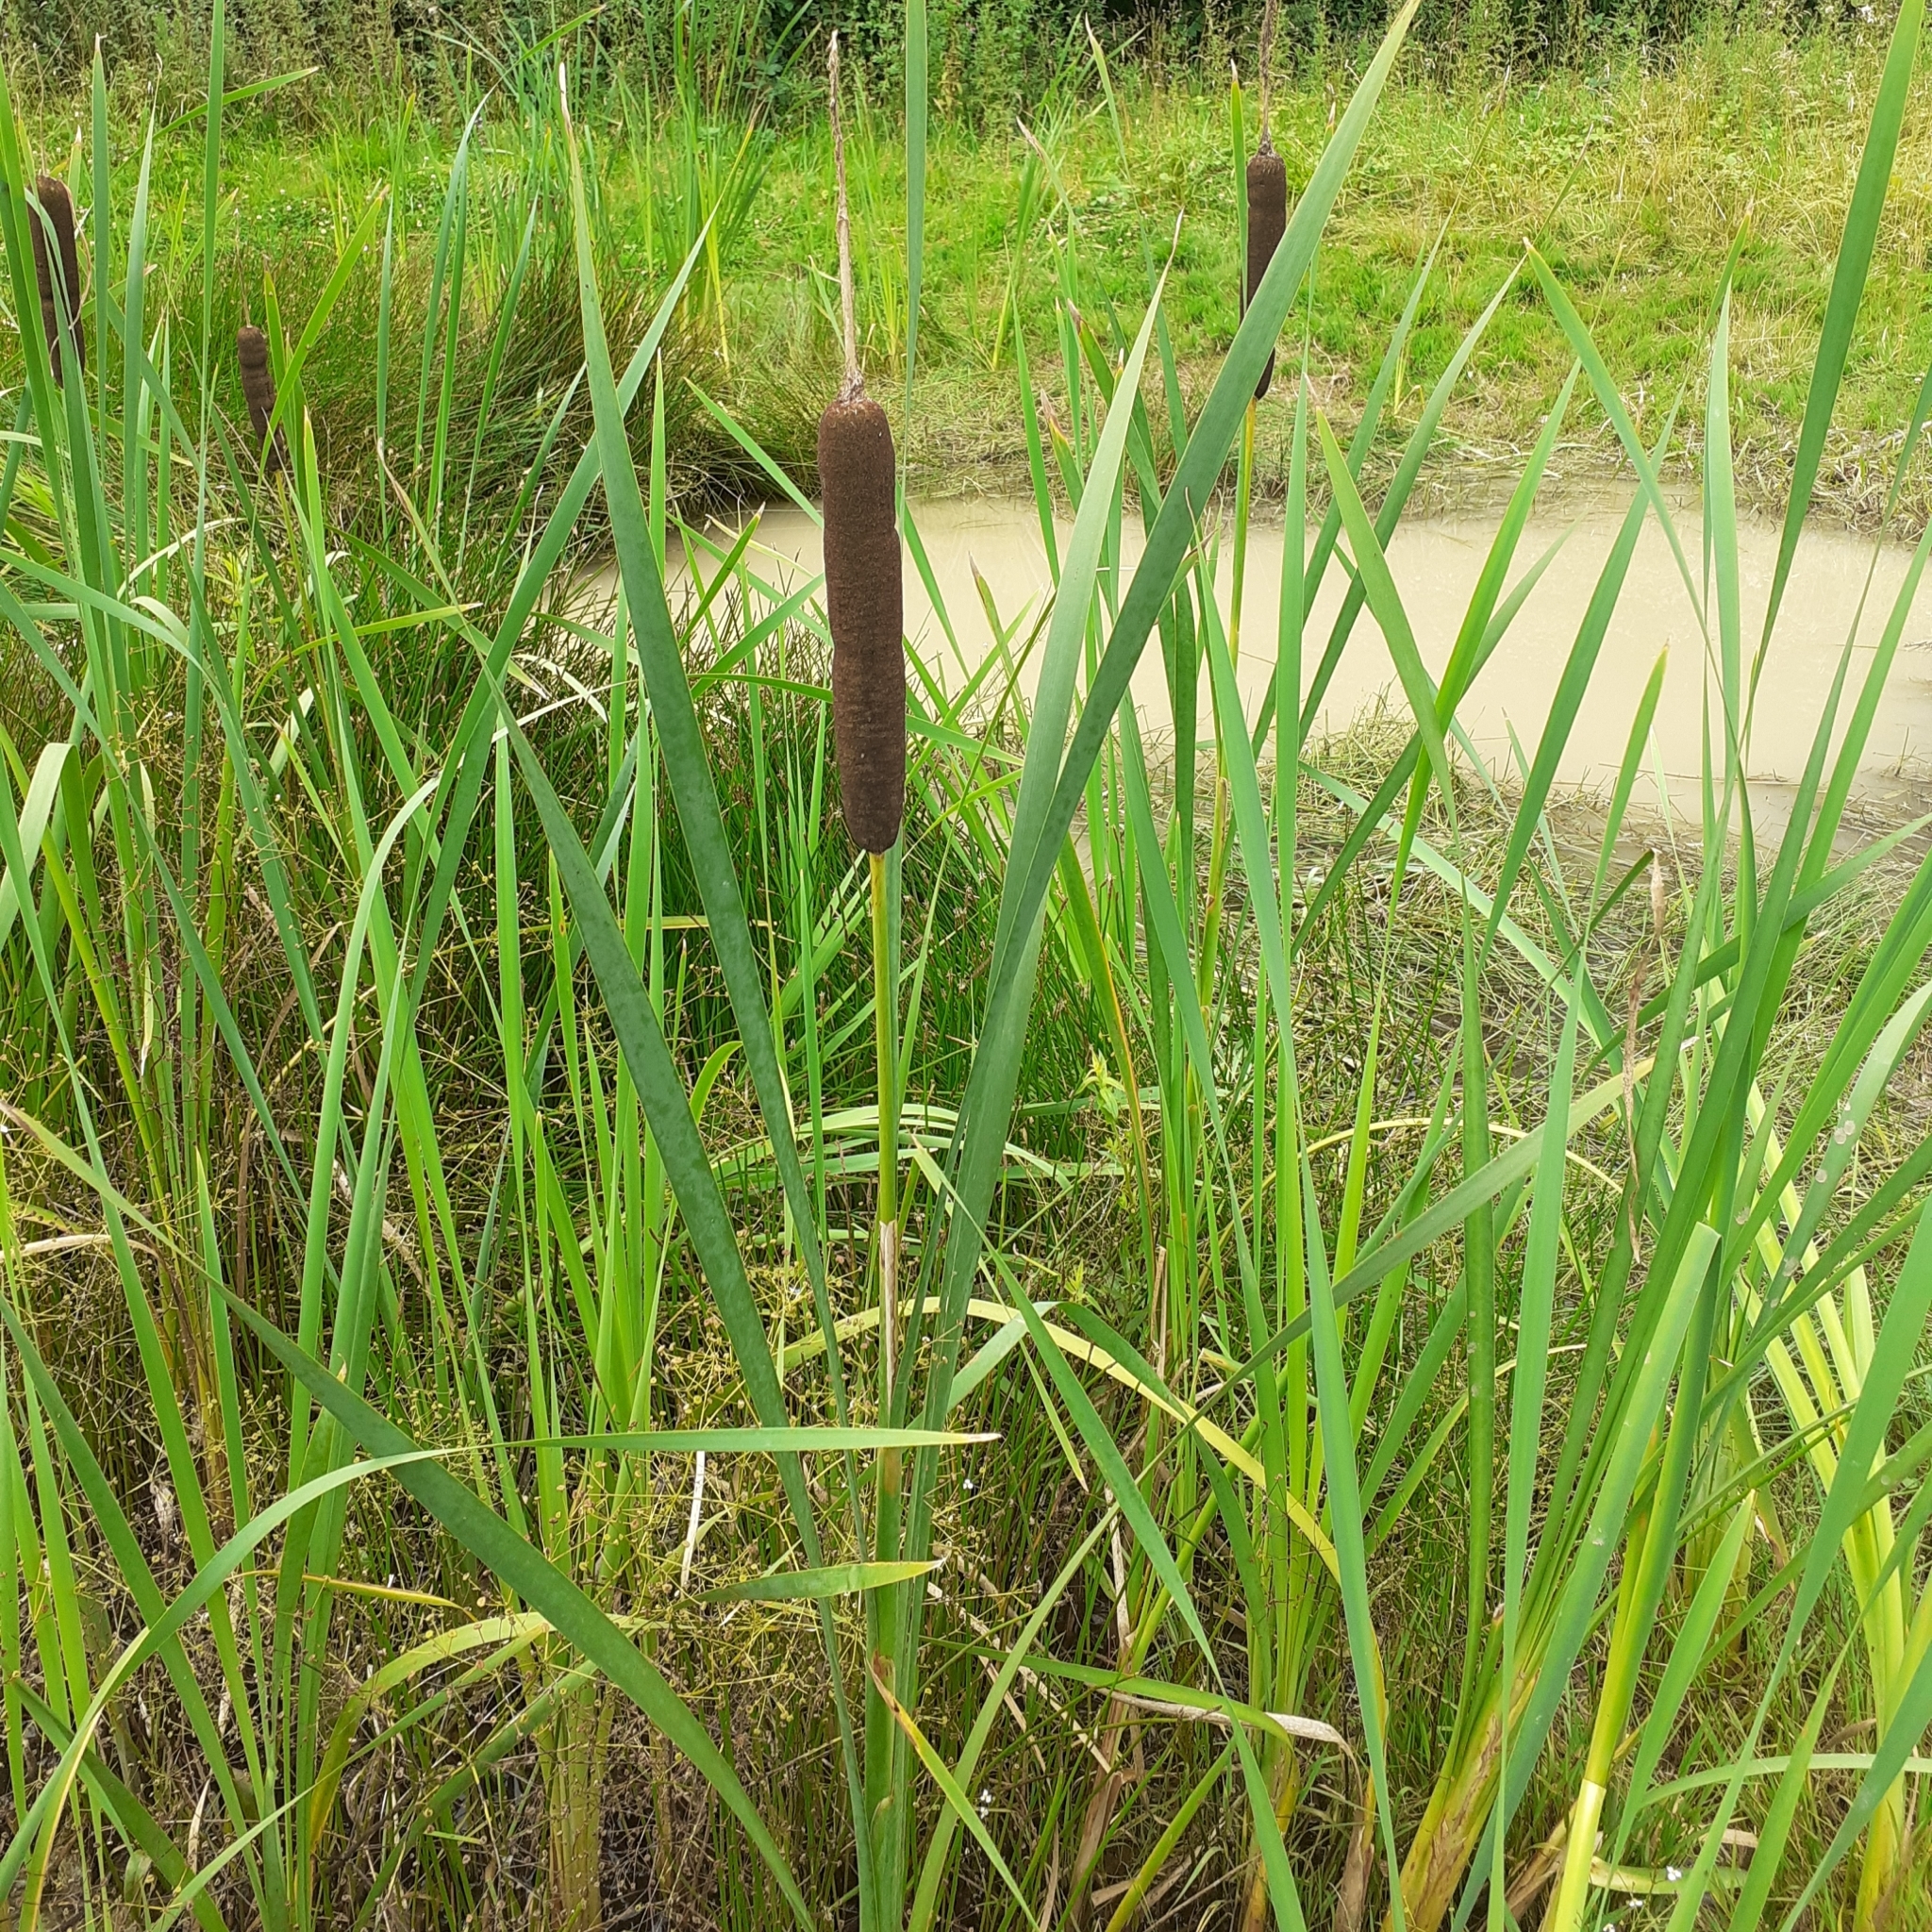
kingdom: Plantae
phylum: Tracheophyta
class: Liliopsida
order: Poales
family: Typhaceae
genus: Typha
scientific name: Typha latifolia
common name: Broadleaf cattail
